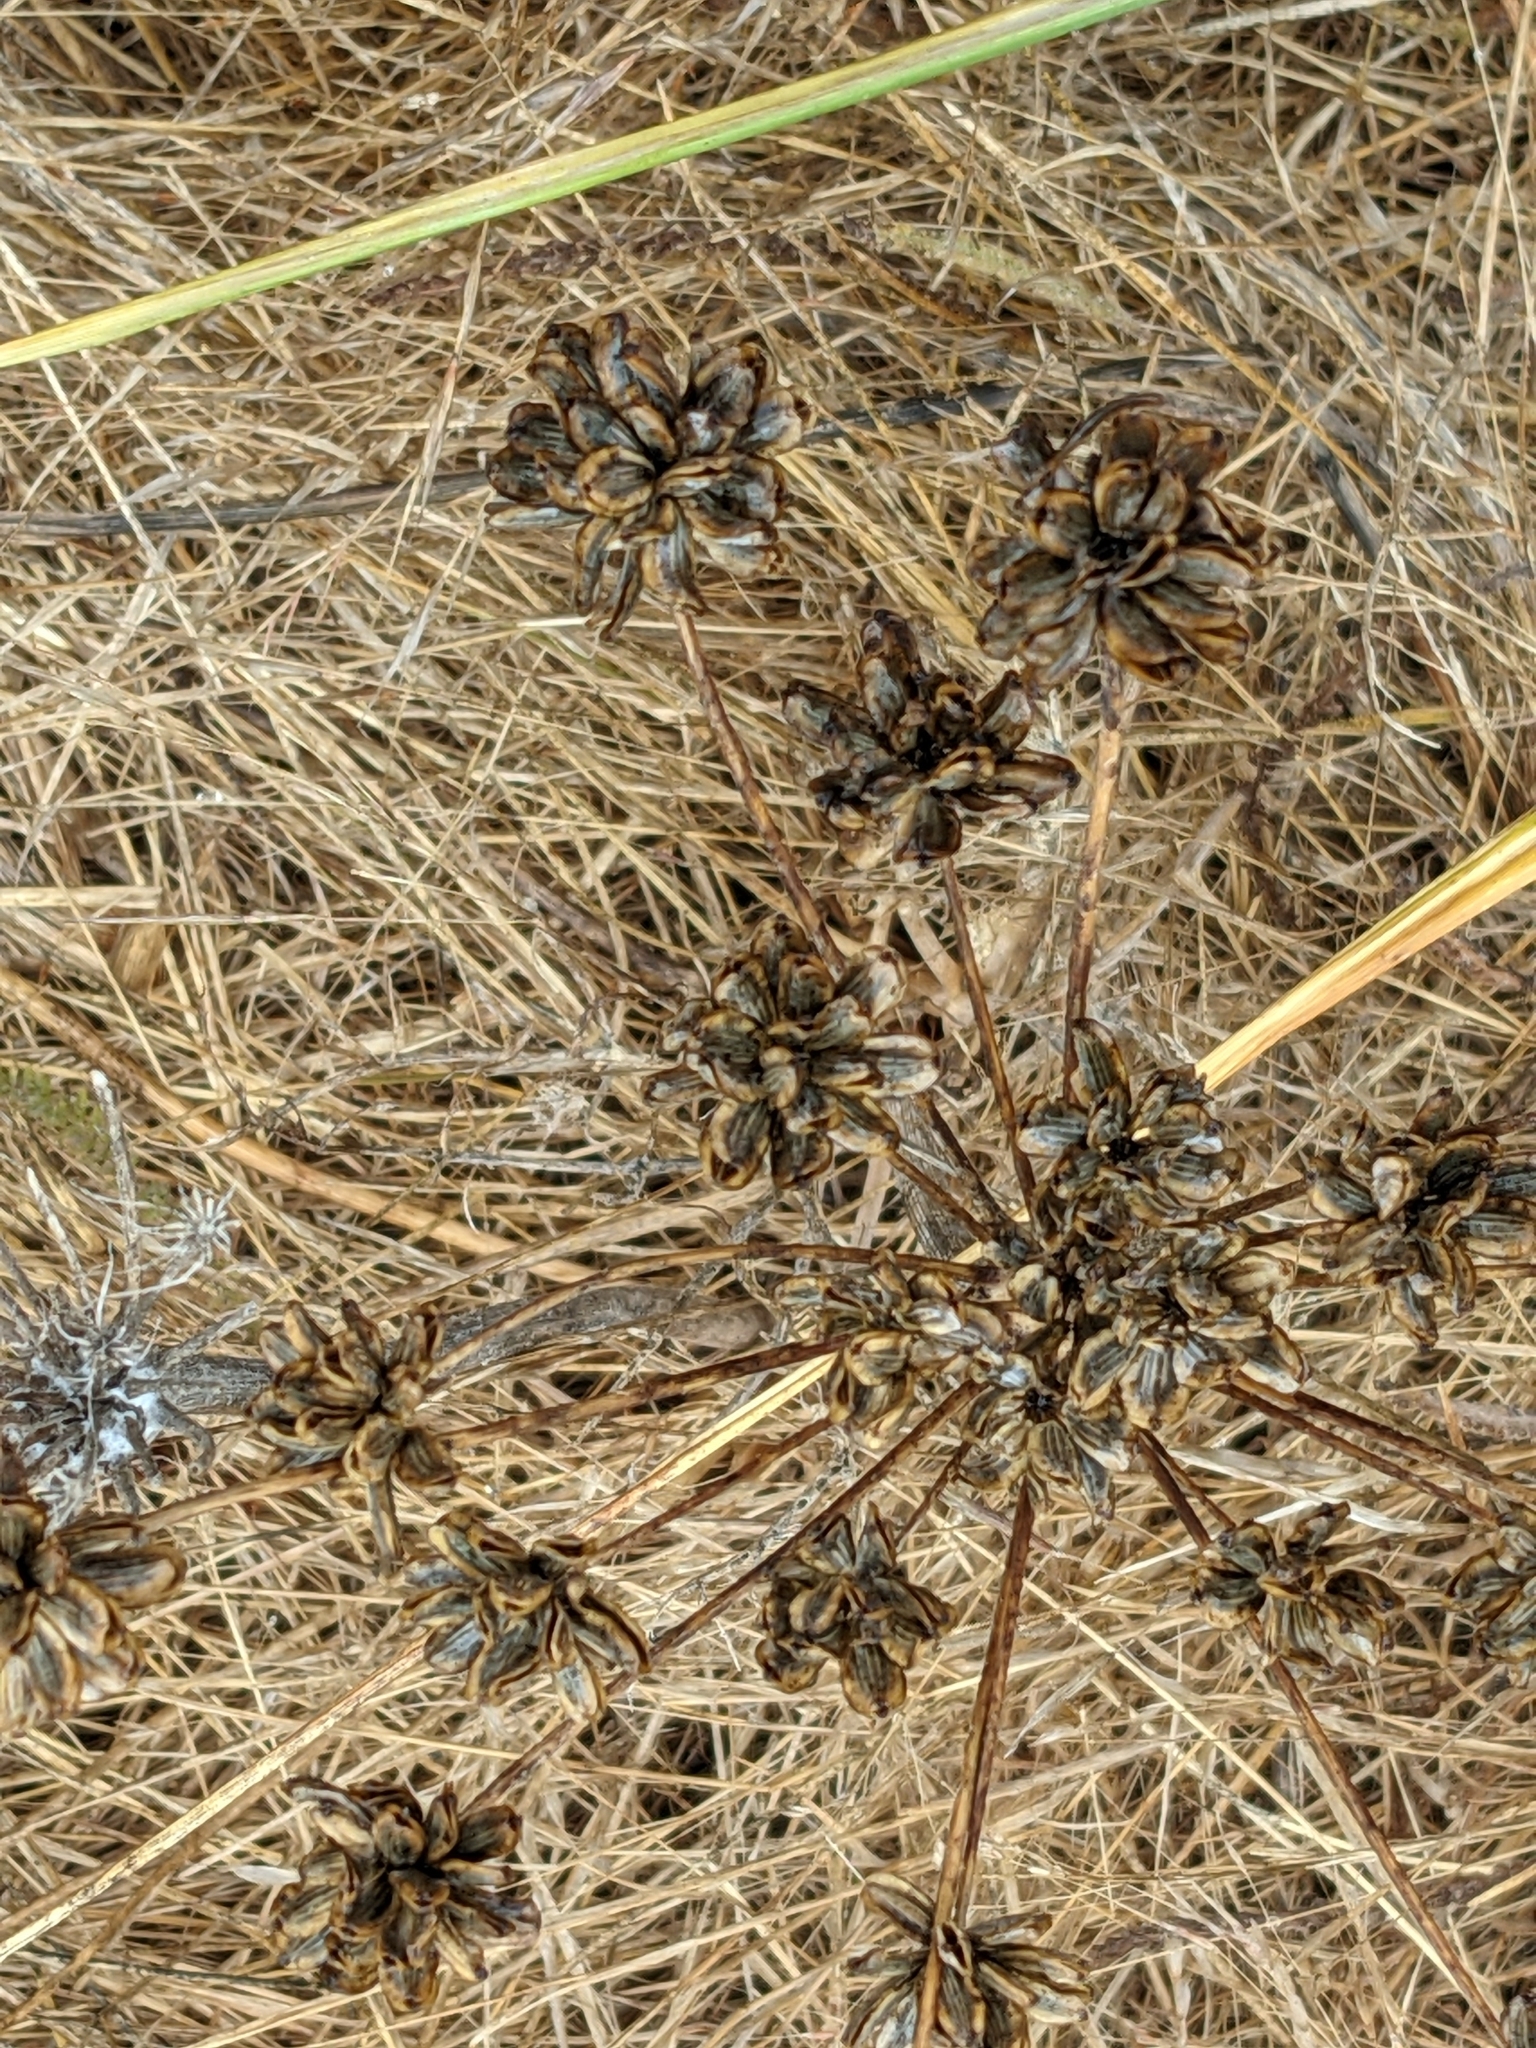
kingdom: Plantae
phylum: Tracheophyta
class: Magnoliopsida
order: Apiales
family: Apiaceae
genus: Lomatium
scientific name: Lomatium nudicaule
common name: Pestle lomatium
